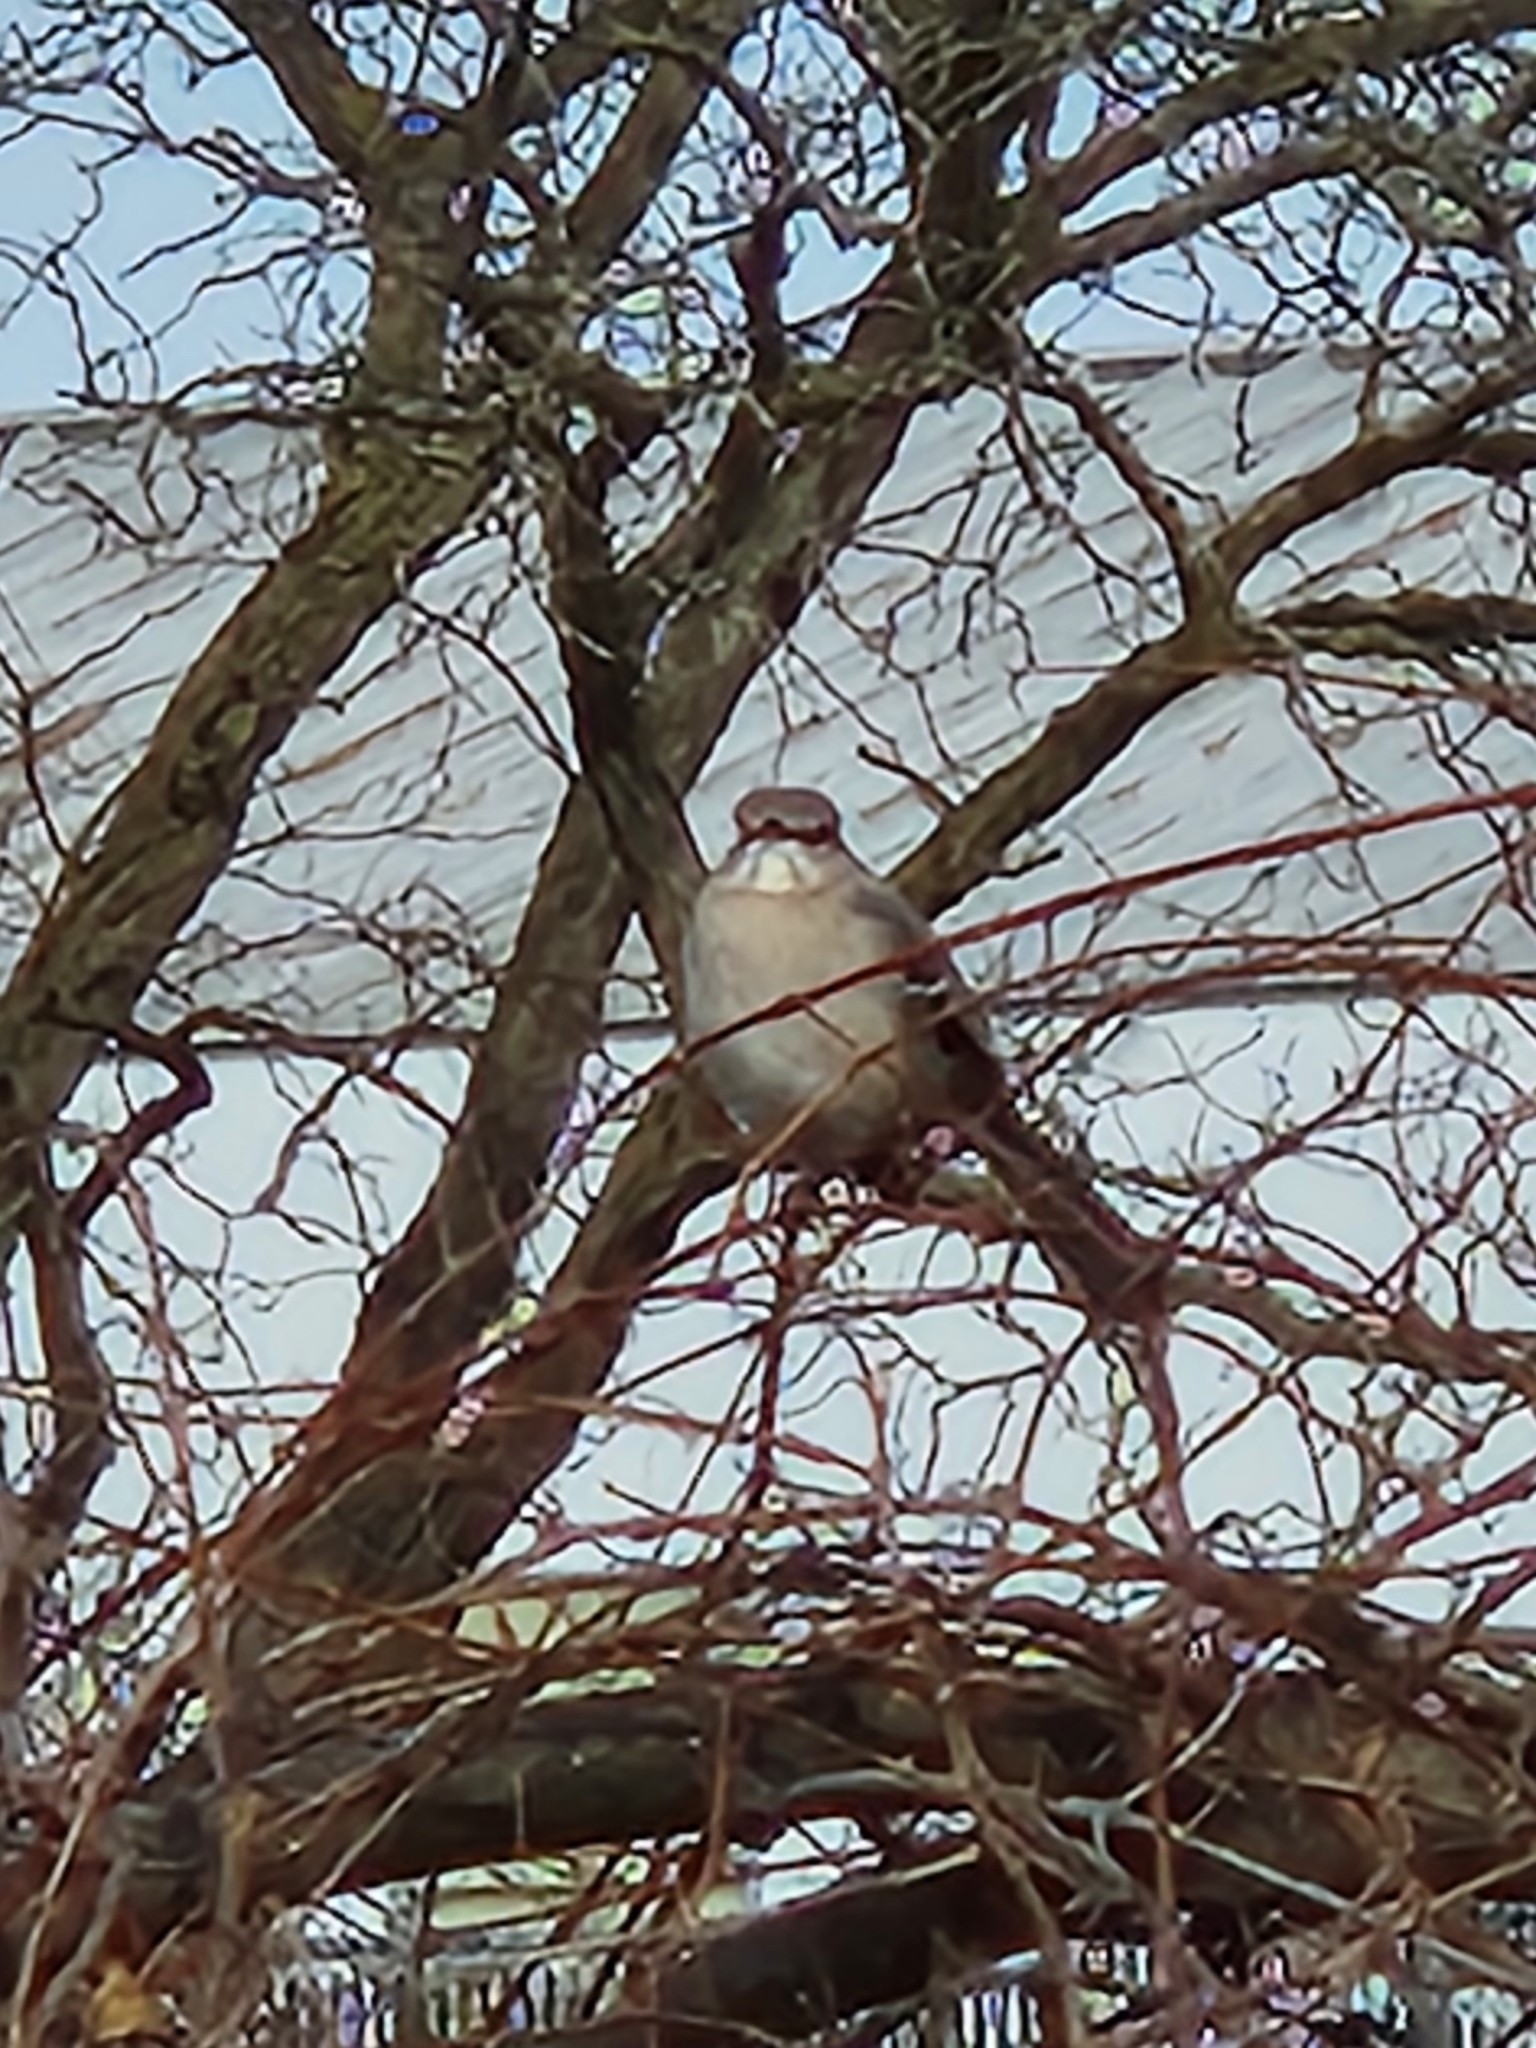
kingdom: Animalia
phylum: Chordata
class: Aves
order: Passeriformes
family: Mimidae
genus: Mimus
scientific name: Mimus polyglottos
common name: Northern mockingbird
